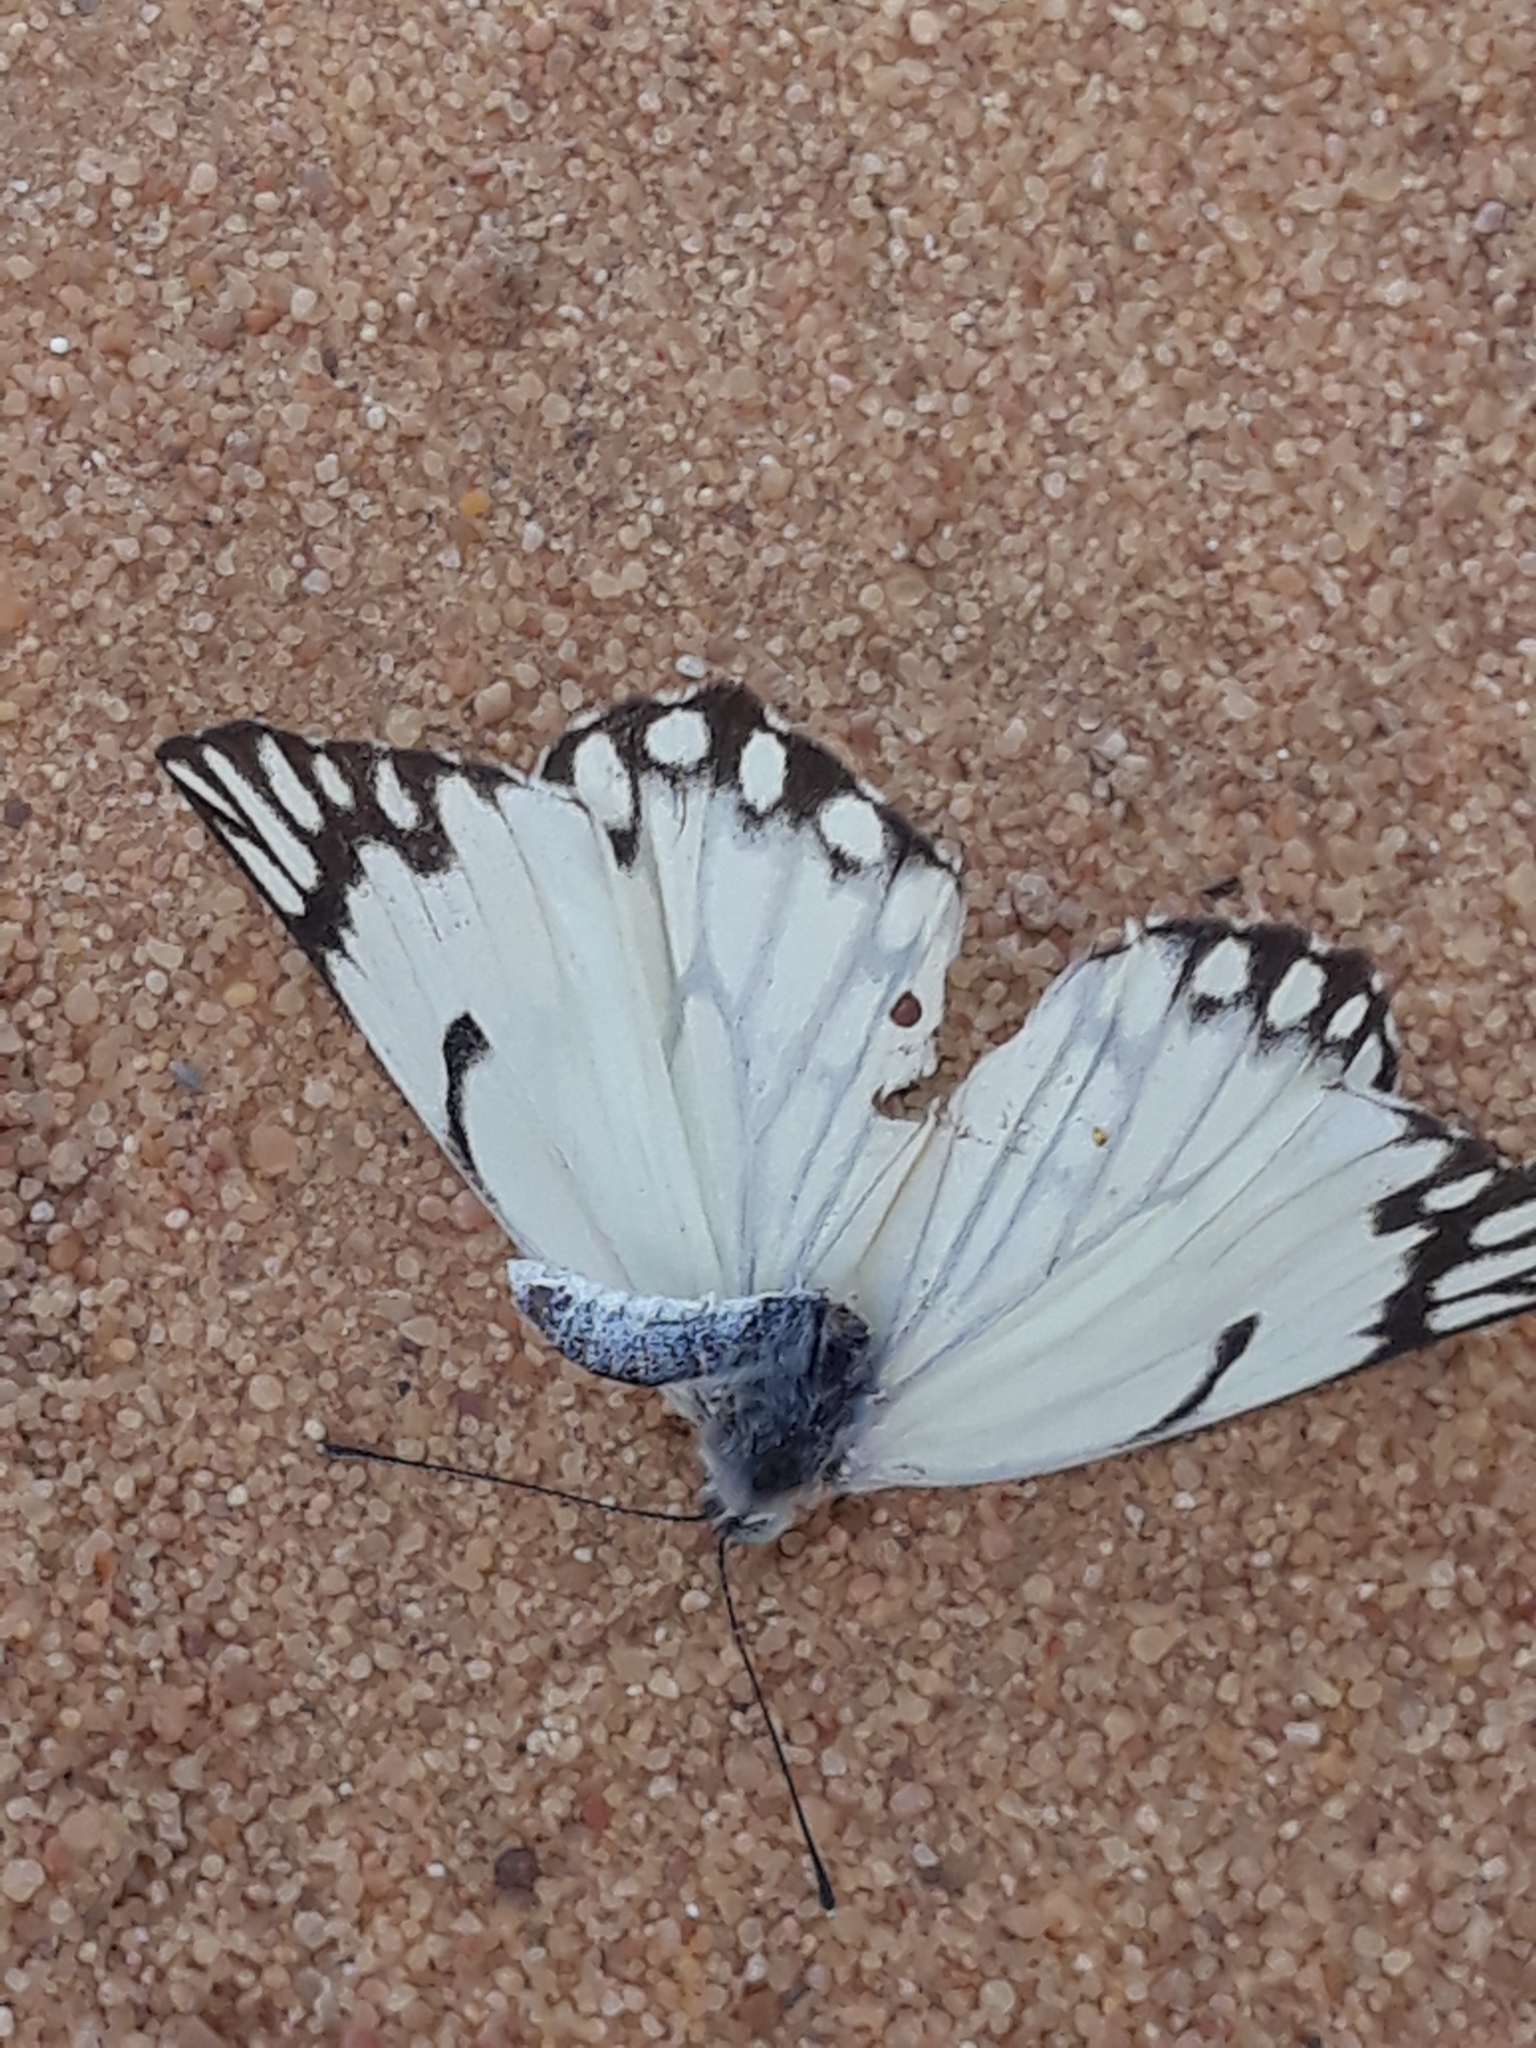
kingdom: Animalia
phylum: Arthropoda
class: Insecta
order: Lepidoptera
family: Pieridae
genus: Belenois
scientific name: Belenois aurota
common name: Brown-veined white
